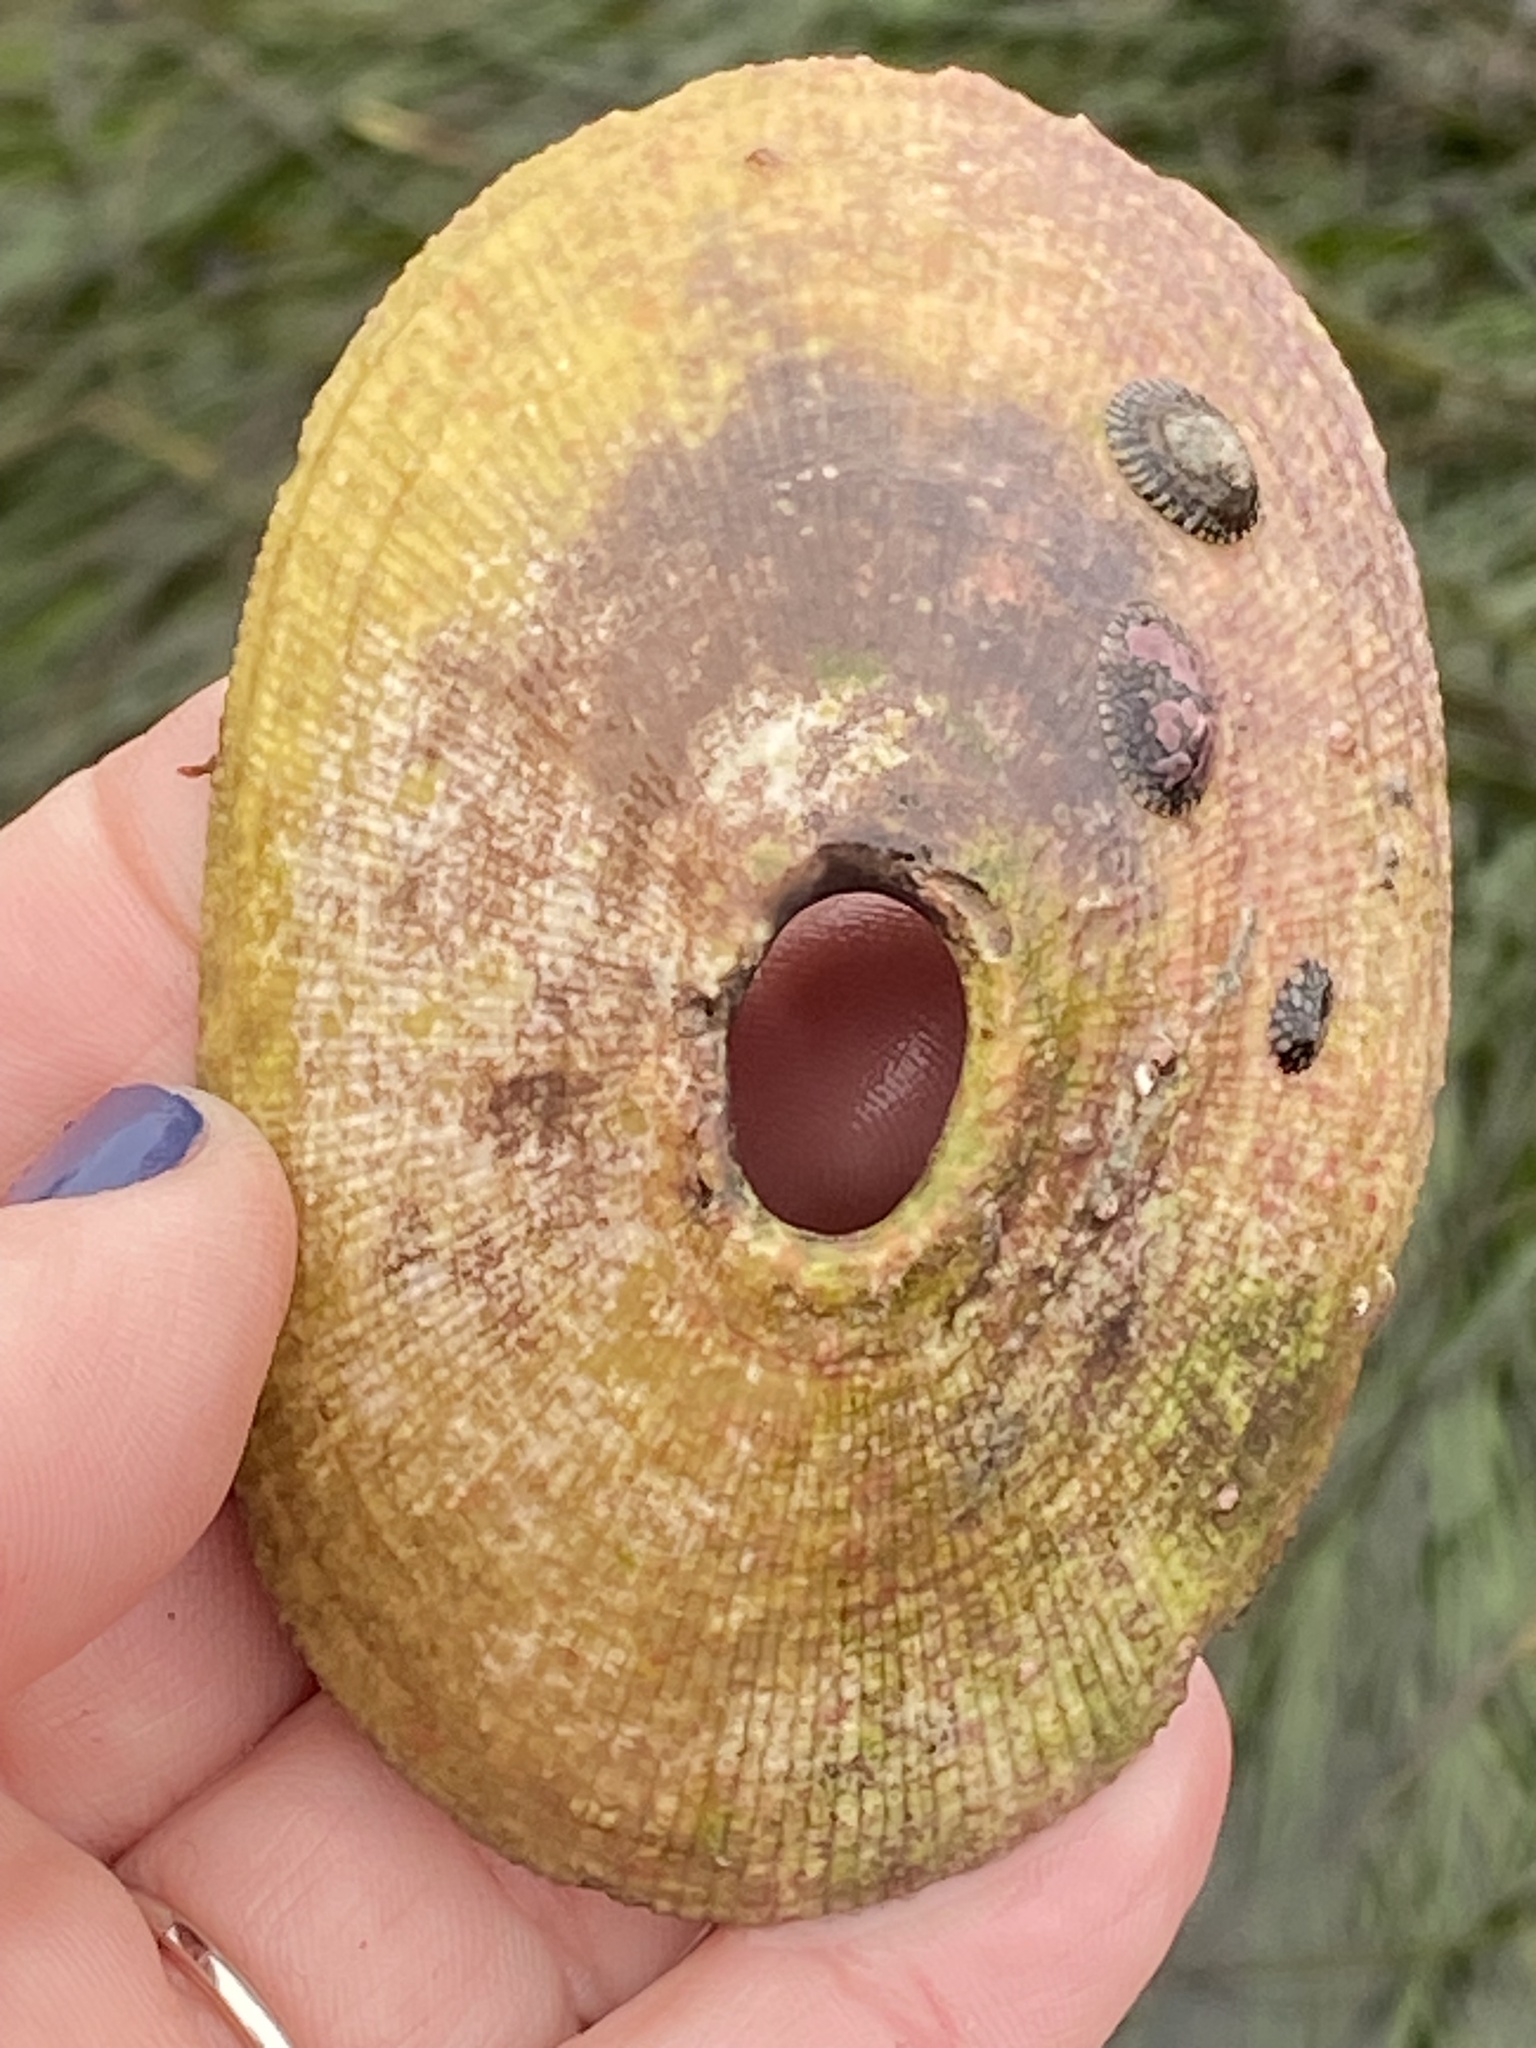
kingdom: Animalia
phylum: Mollusca
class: Gastropoda
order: Lepetellida
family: Fissurellidae
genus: Megathura
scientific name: Megathura crenulata
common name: Giant keyhole limpet
